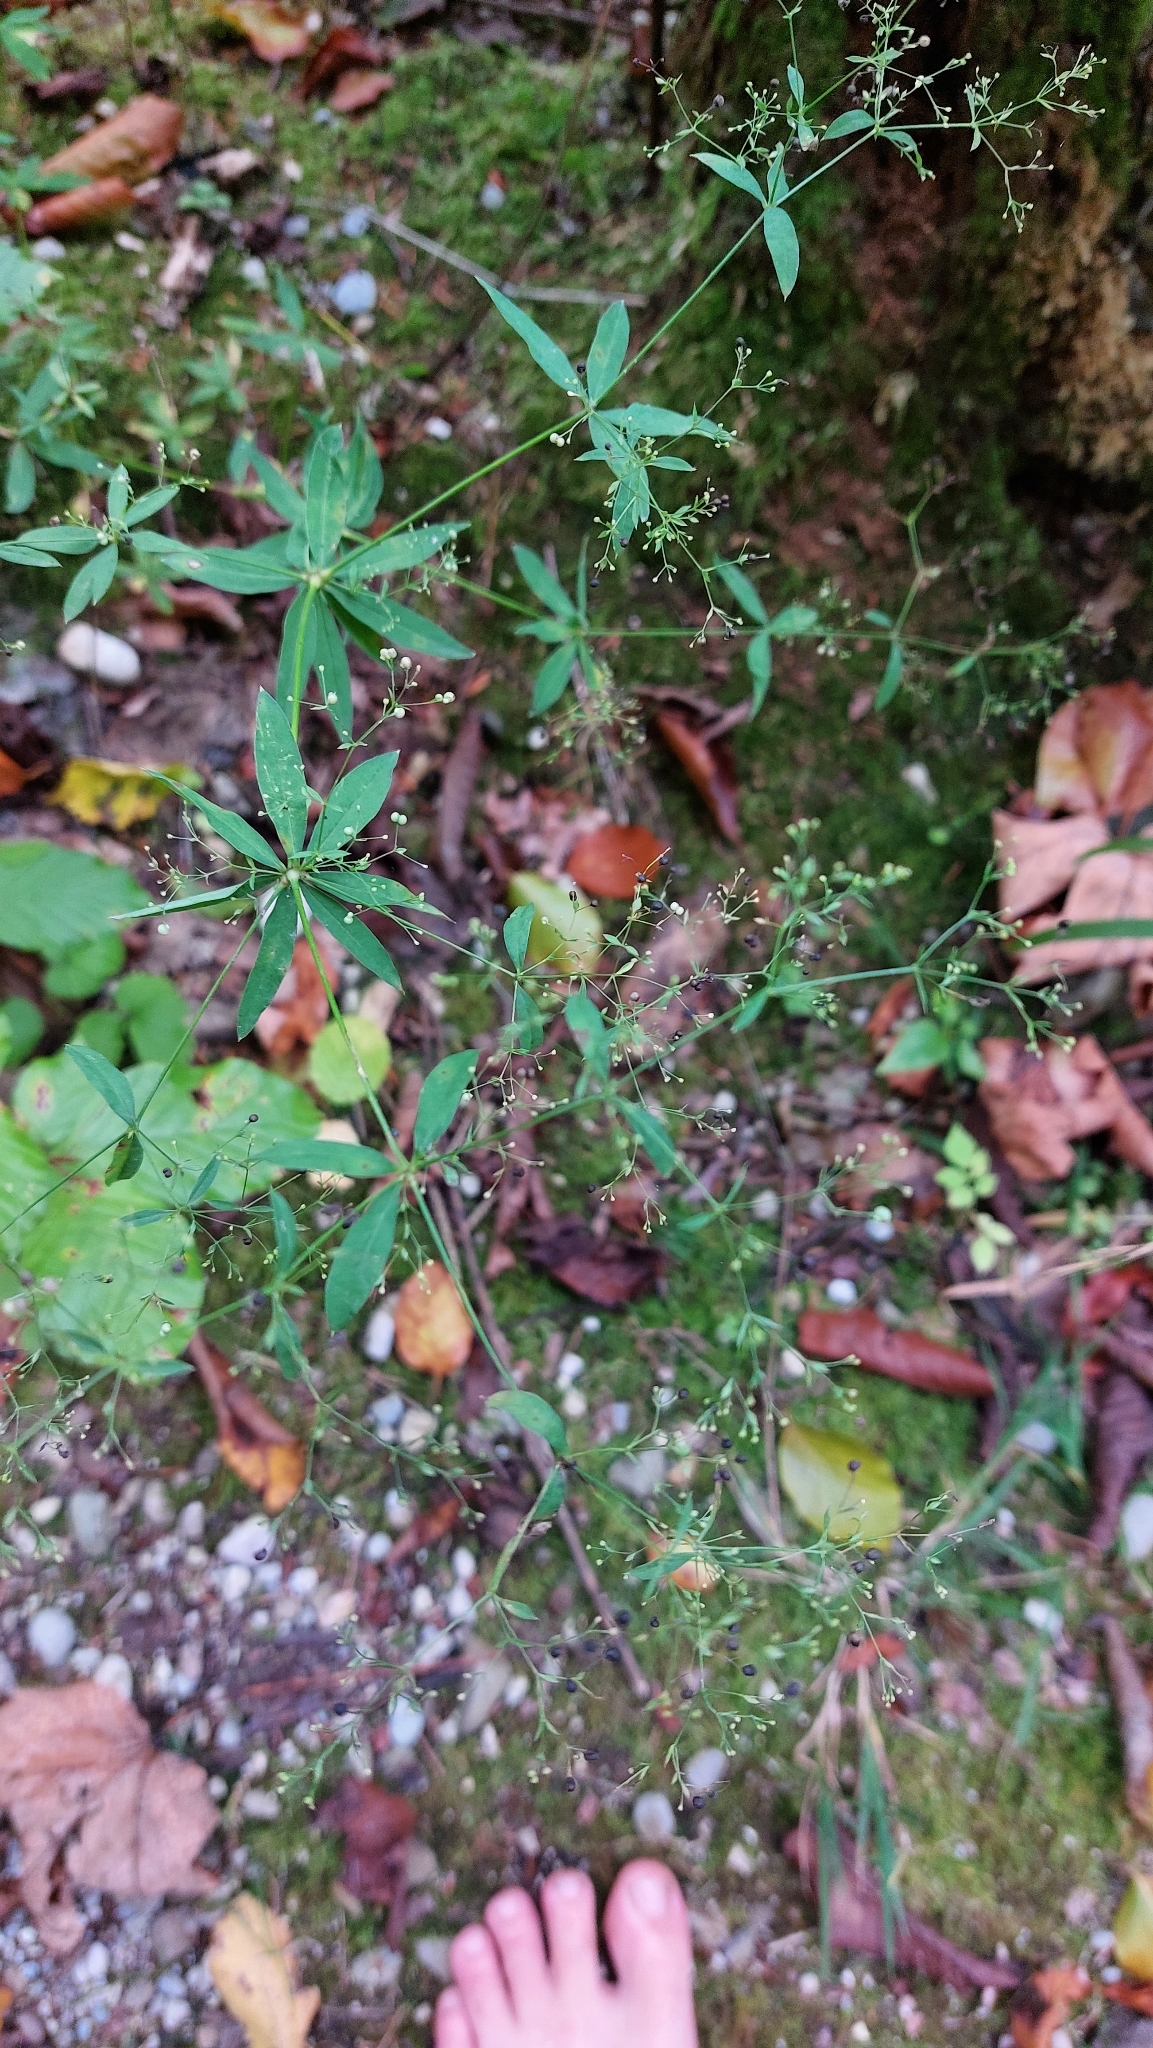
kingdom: Plantae
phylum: Tracheophyta
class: Magnoliopsida
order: Gentianales
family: Rubiaceae
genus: Galium
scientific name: Galium sylvaticum
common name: Wood bedstraw
